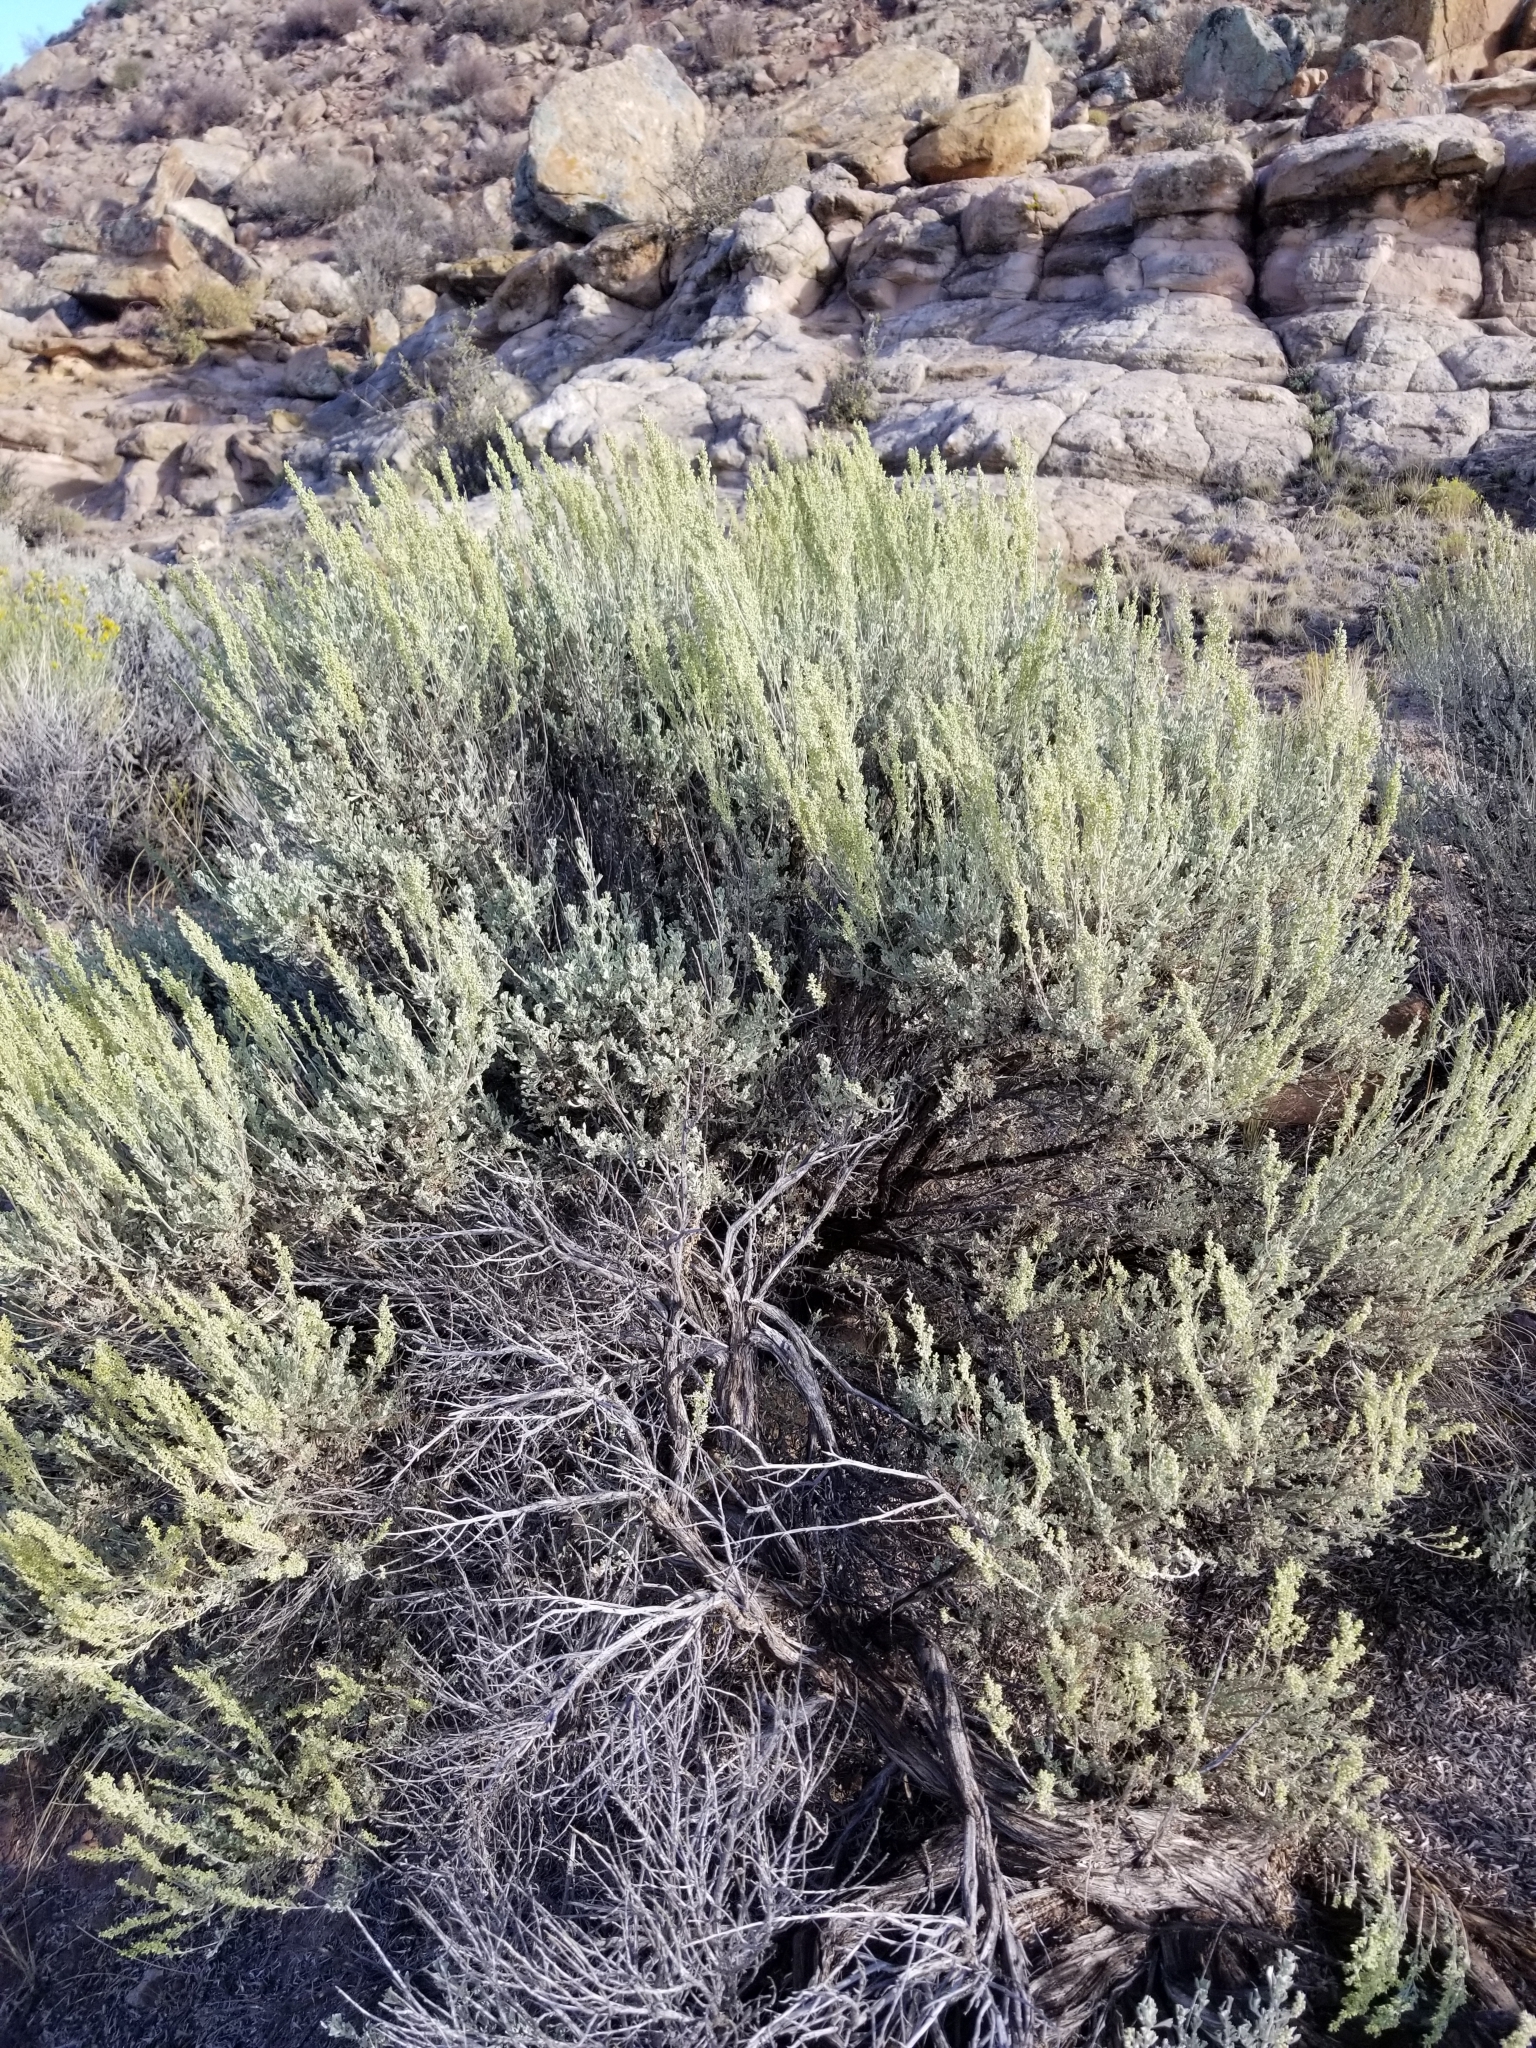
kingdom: Plantae
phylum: Tracheophyta
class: Magnoliopsida
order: Asterales
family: Asteraceae
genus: Artemisia
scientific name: Artemisia tridentata
